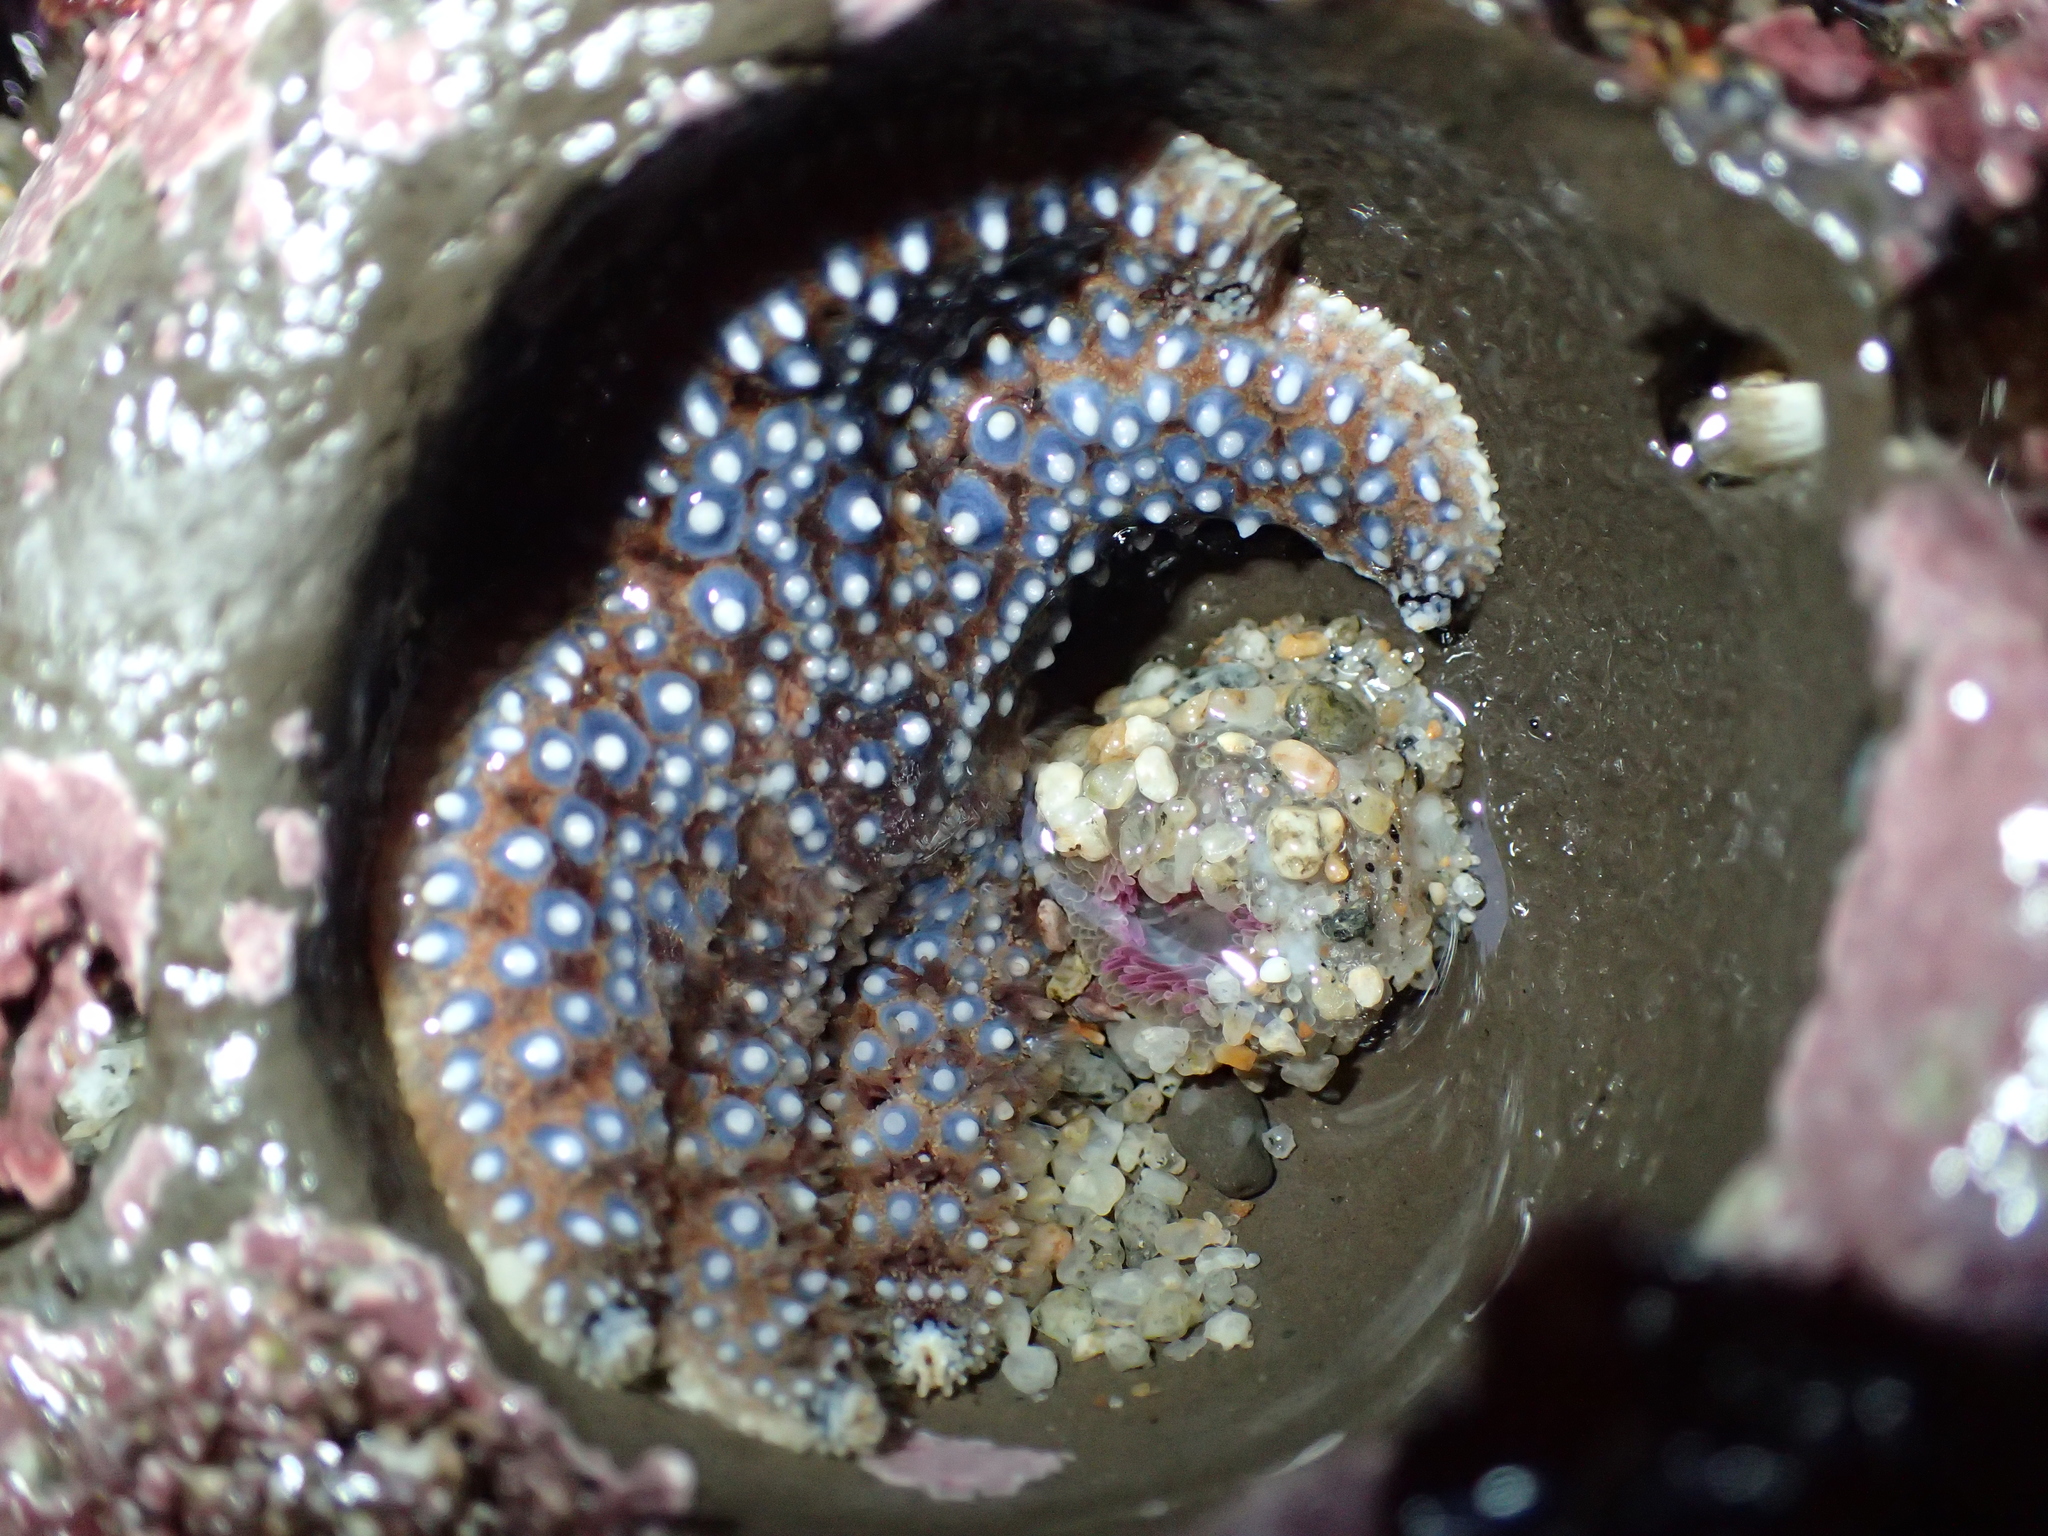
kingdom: Animalia
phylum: Echinodermata
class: Asteroidea
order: Forcipulatida
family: Asteriidae
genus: Pisaster
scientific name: Pisaster giganteus
